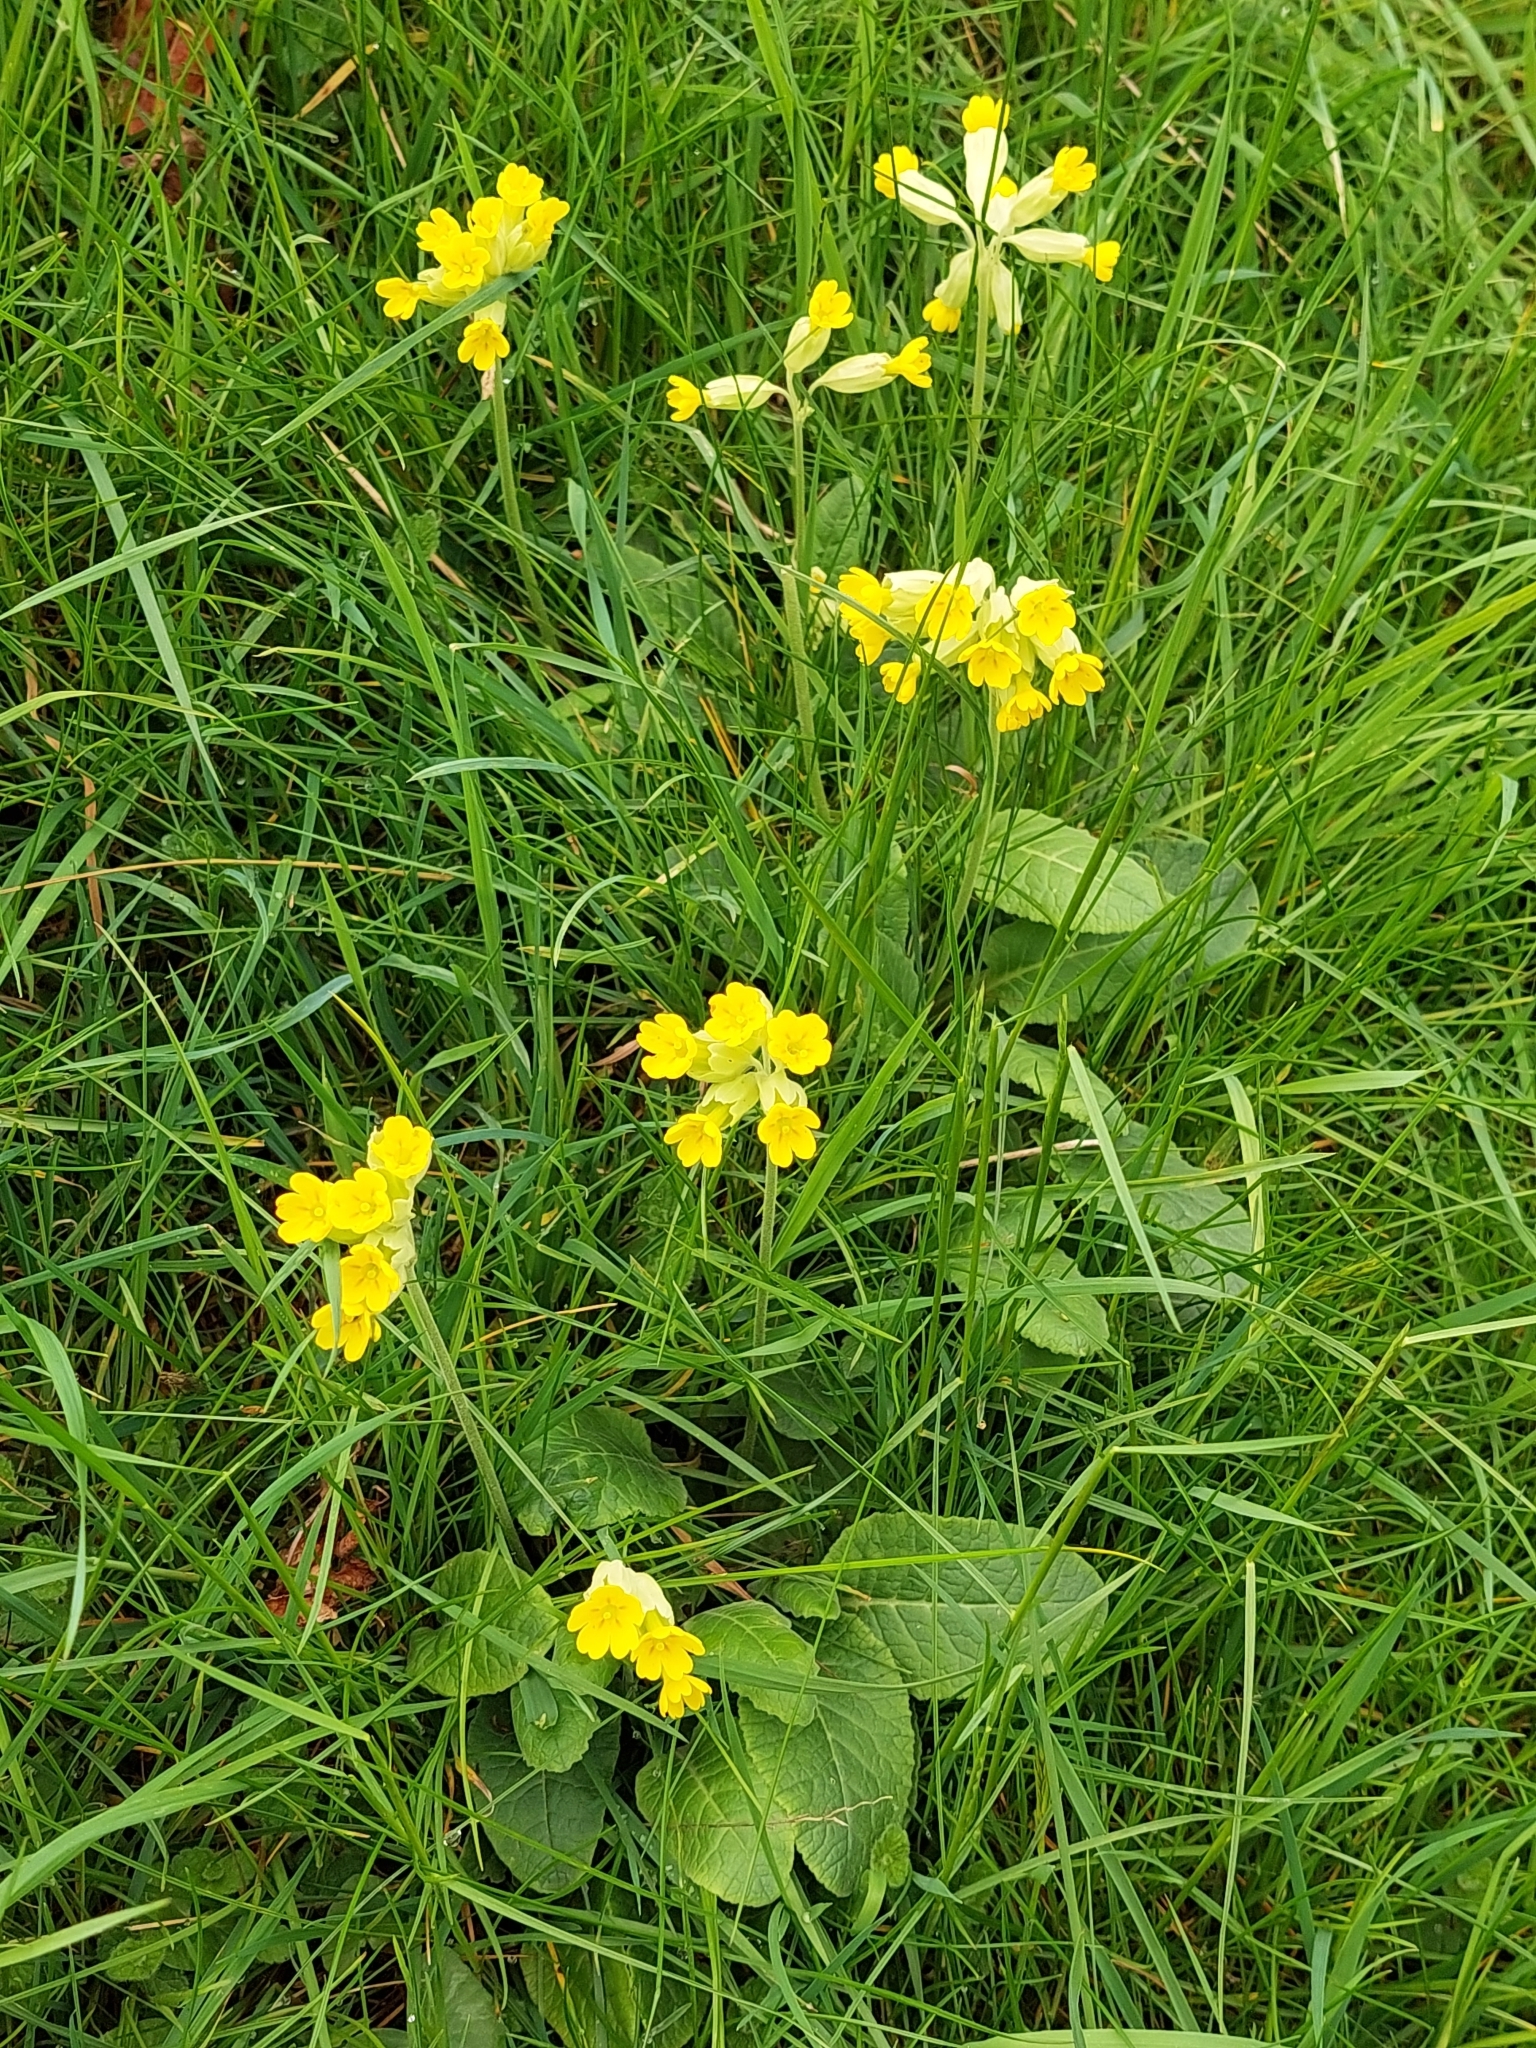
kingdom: Plantae
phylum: Tracheophyta
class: Magnoliopsida
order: Ericales
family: Primulaceae
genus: Primula
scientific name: Primula veris
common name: Cowslip
